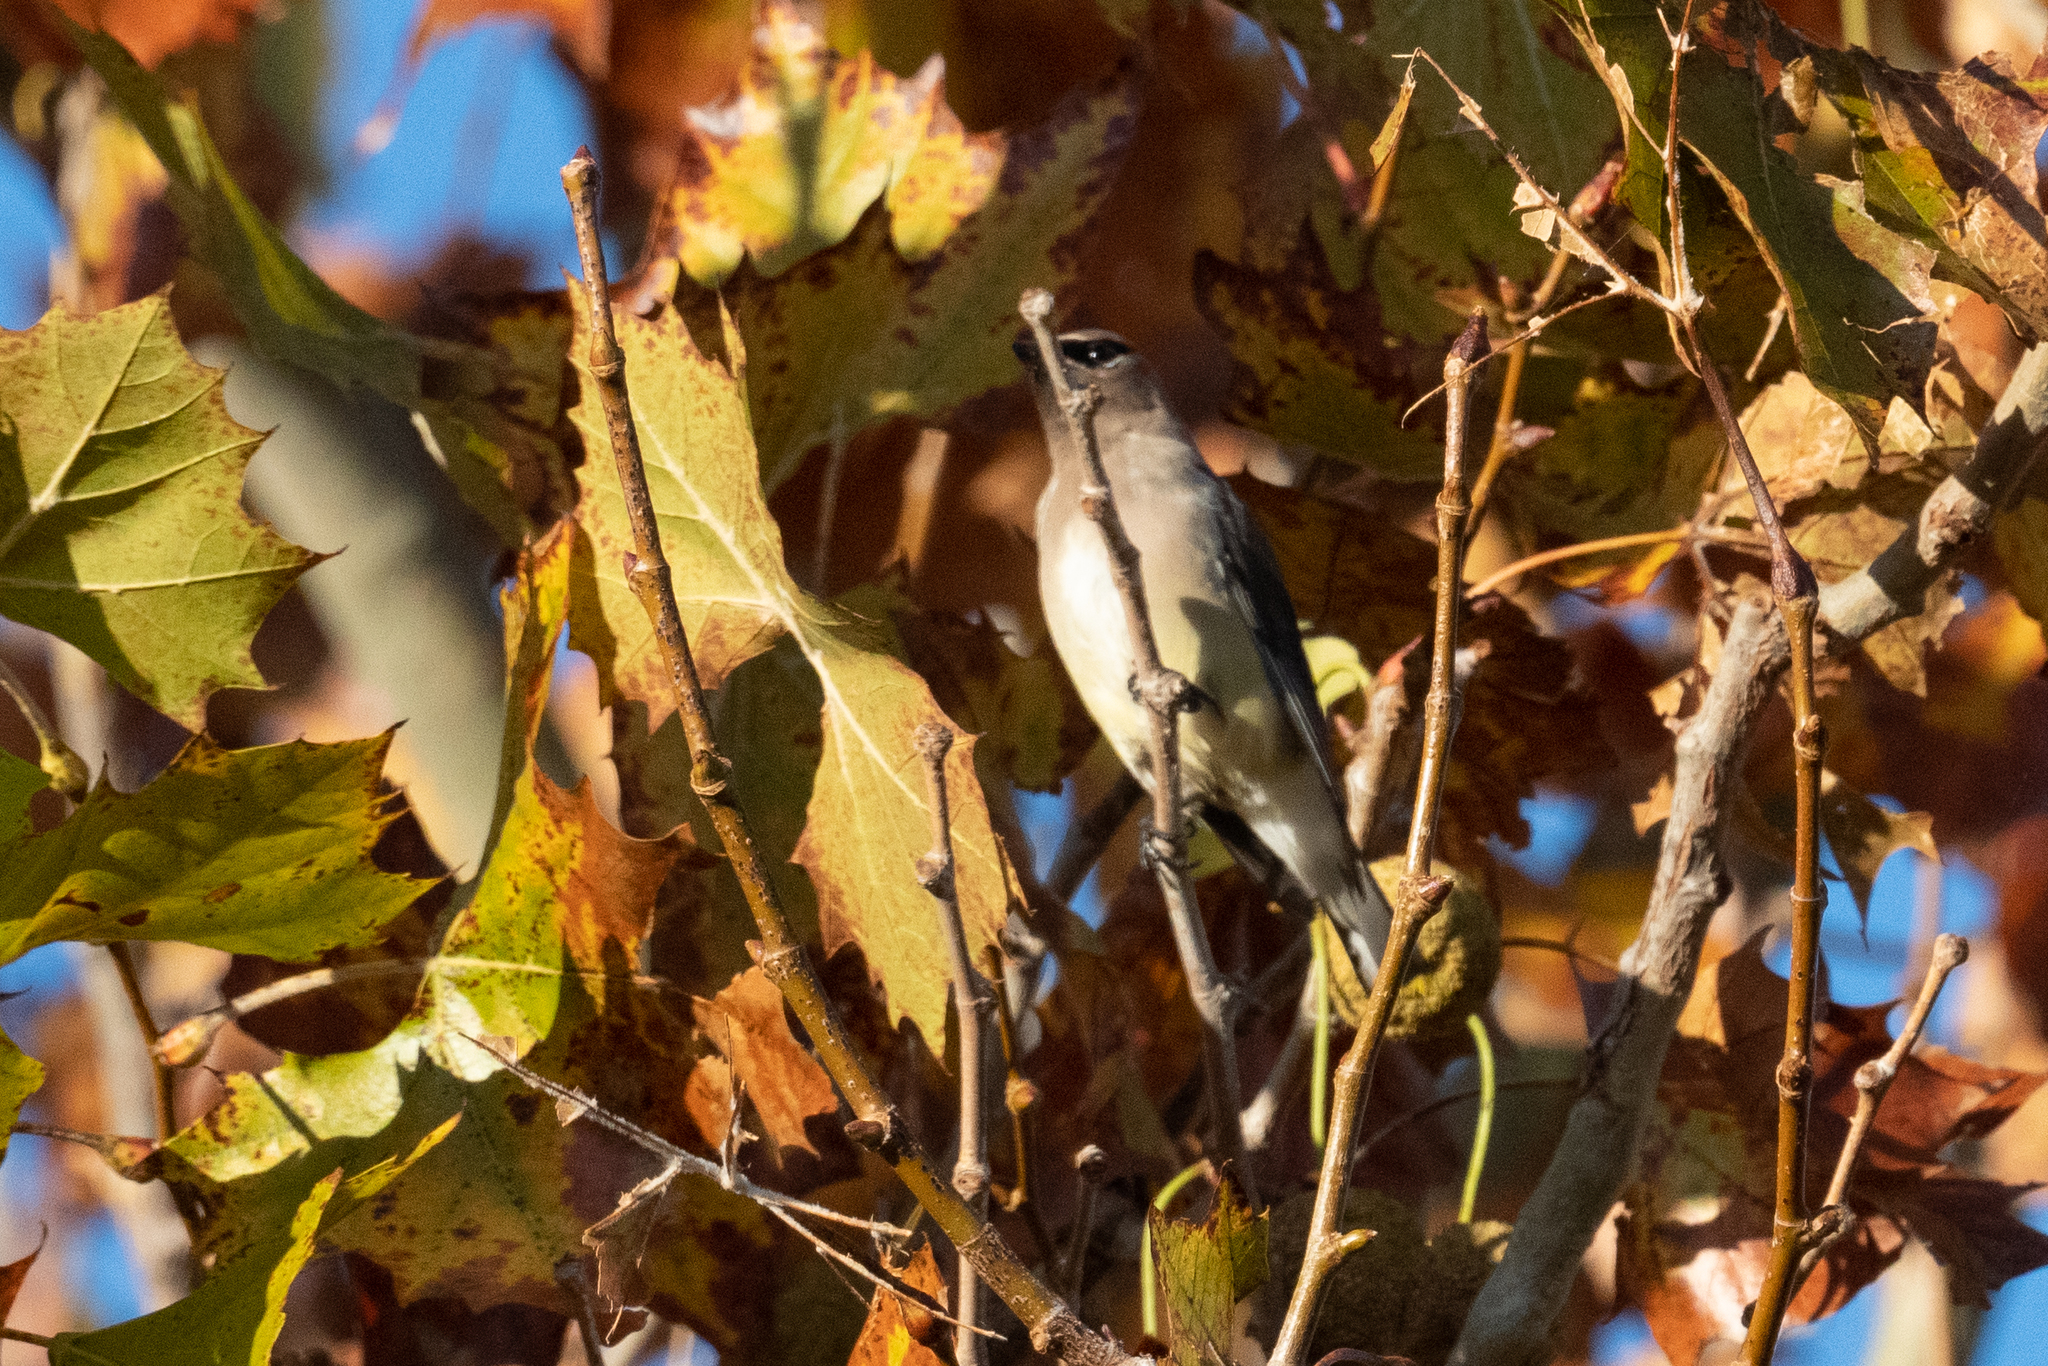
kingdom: Animalia
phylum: Chordata
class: Aves
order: Passeriformes
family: Bombycillidae
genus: Bombycilla
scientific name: Bombycilla cedrorum
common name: Cedar waxwing
